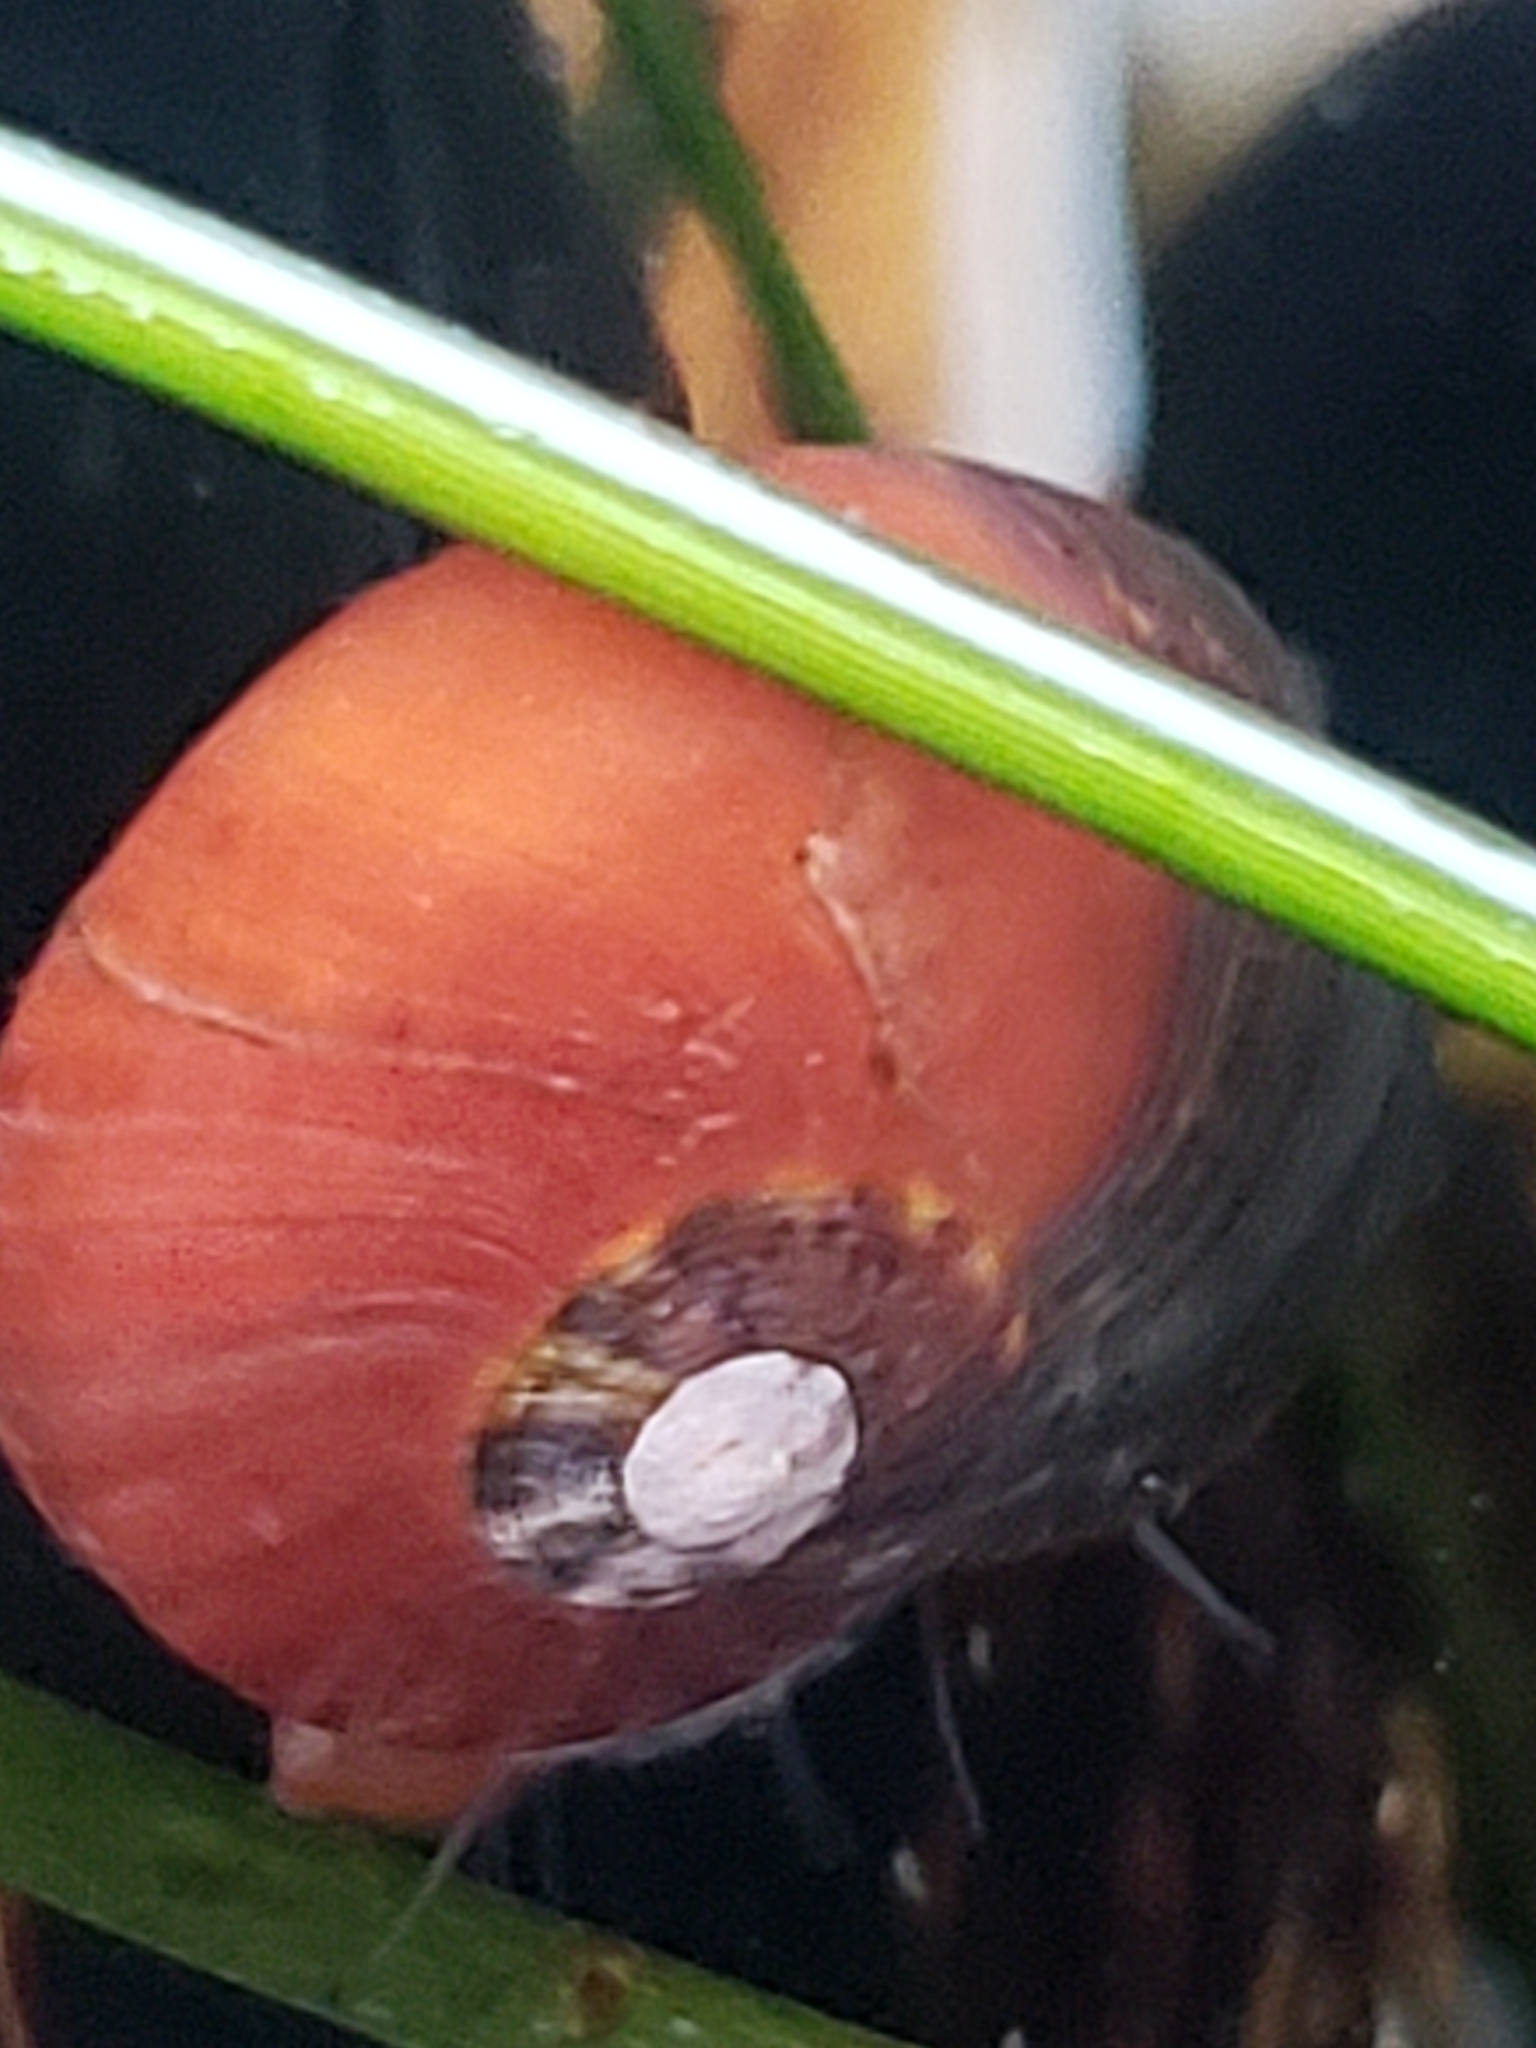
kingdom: Animalia
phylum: Mollusca
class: Gastropoda
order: Trochida
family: Tegulidae
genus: Norrisia
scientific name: Norrisia norrisii
